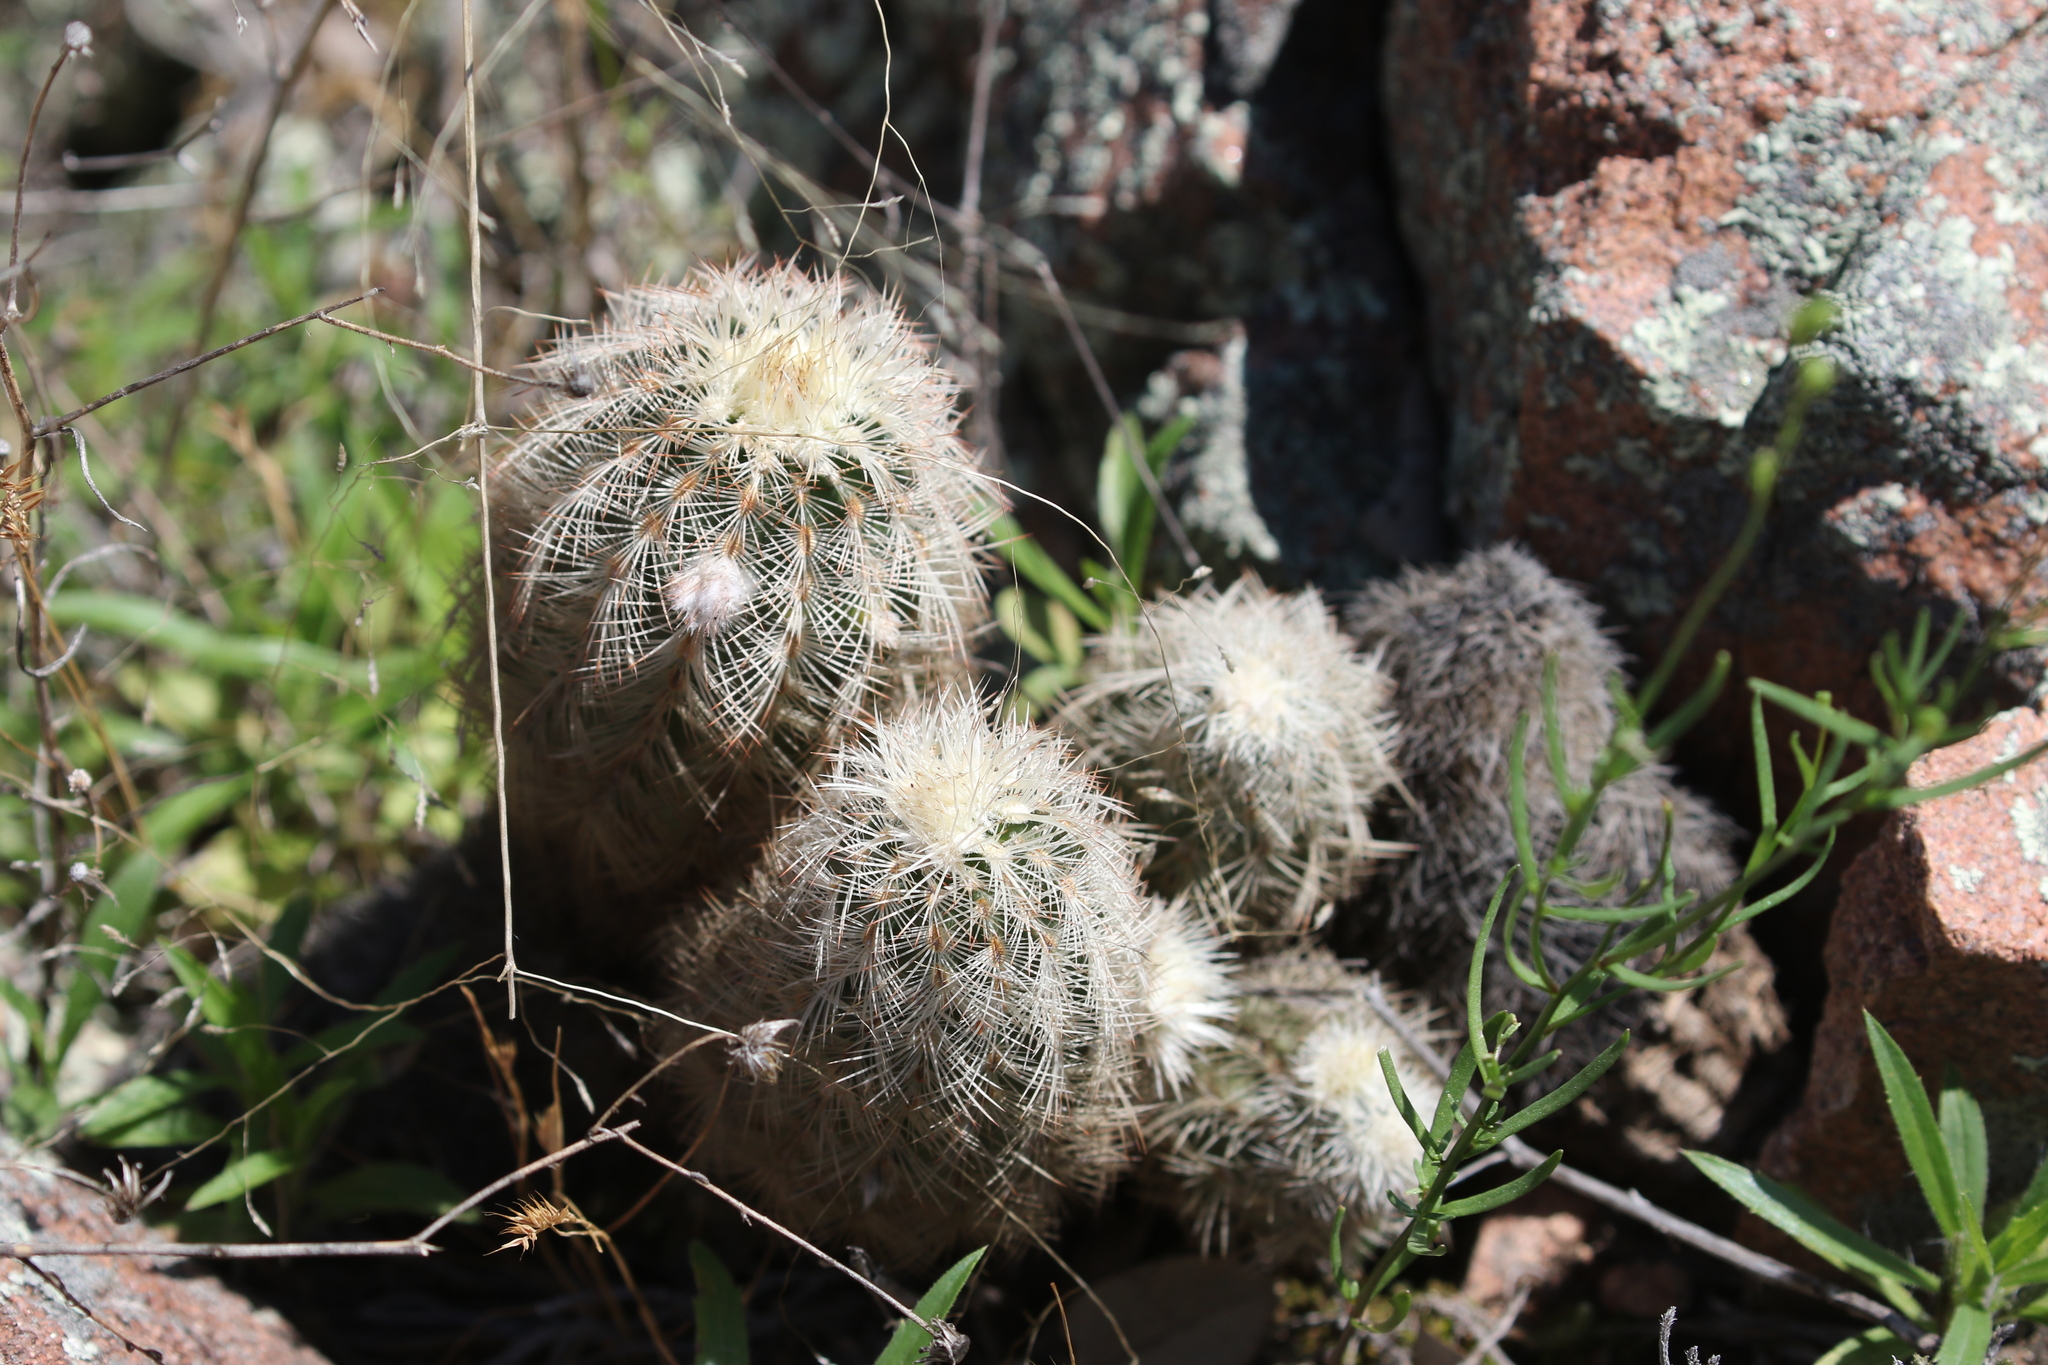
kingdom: Plantae
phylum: Tracheophyta
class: Magnoliopsida
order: Caryophyllales
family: Cactaceae
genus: Echinocereus
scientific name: Echinocereus reichenbachii
